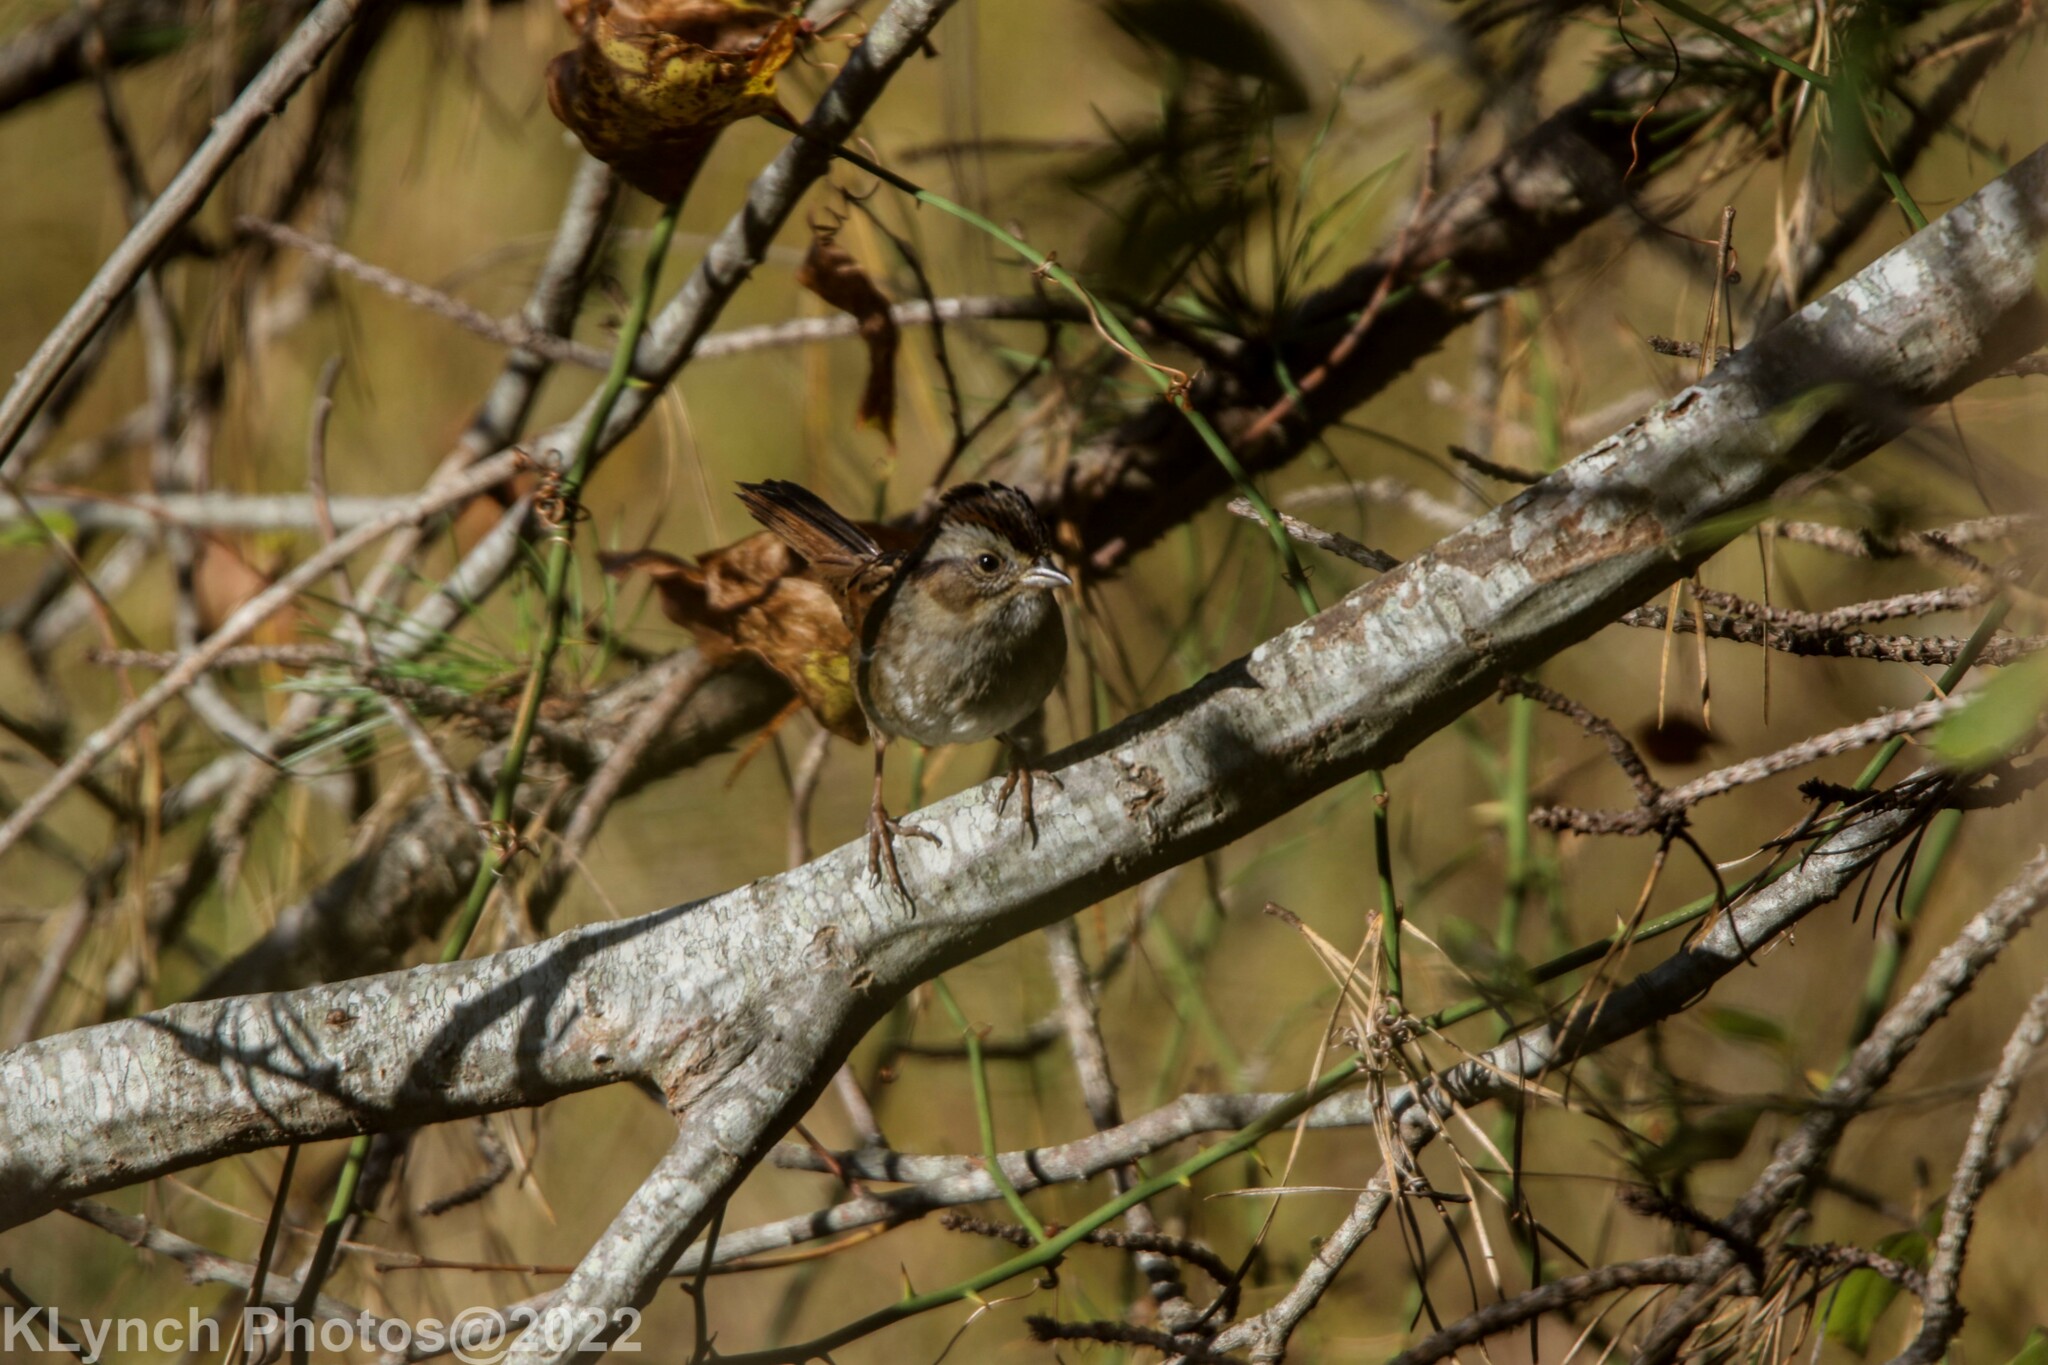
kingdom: Animalia
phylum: Chordata
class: Aves
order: Passeriformes
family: Passerellidae
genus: Melospiza
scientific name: Melospiza georgiana
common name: Swamp sparrow
